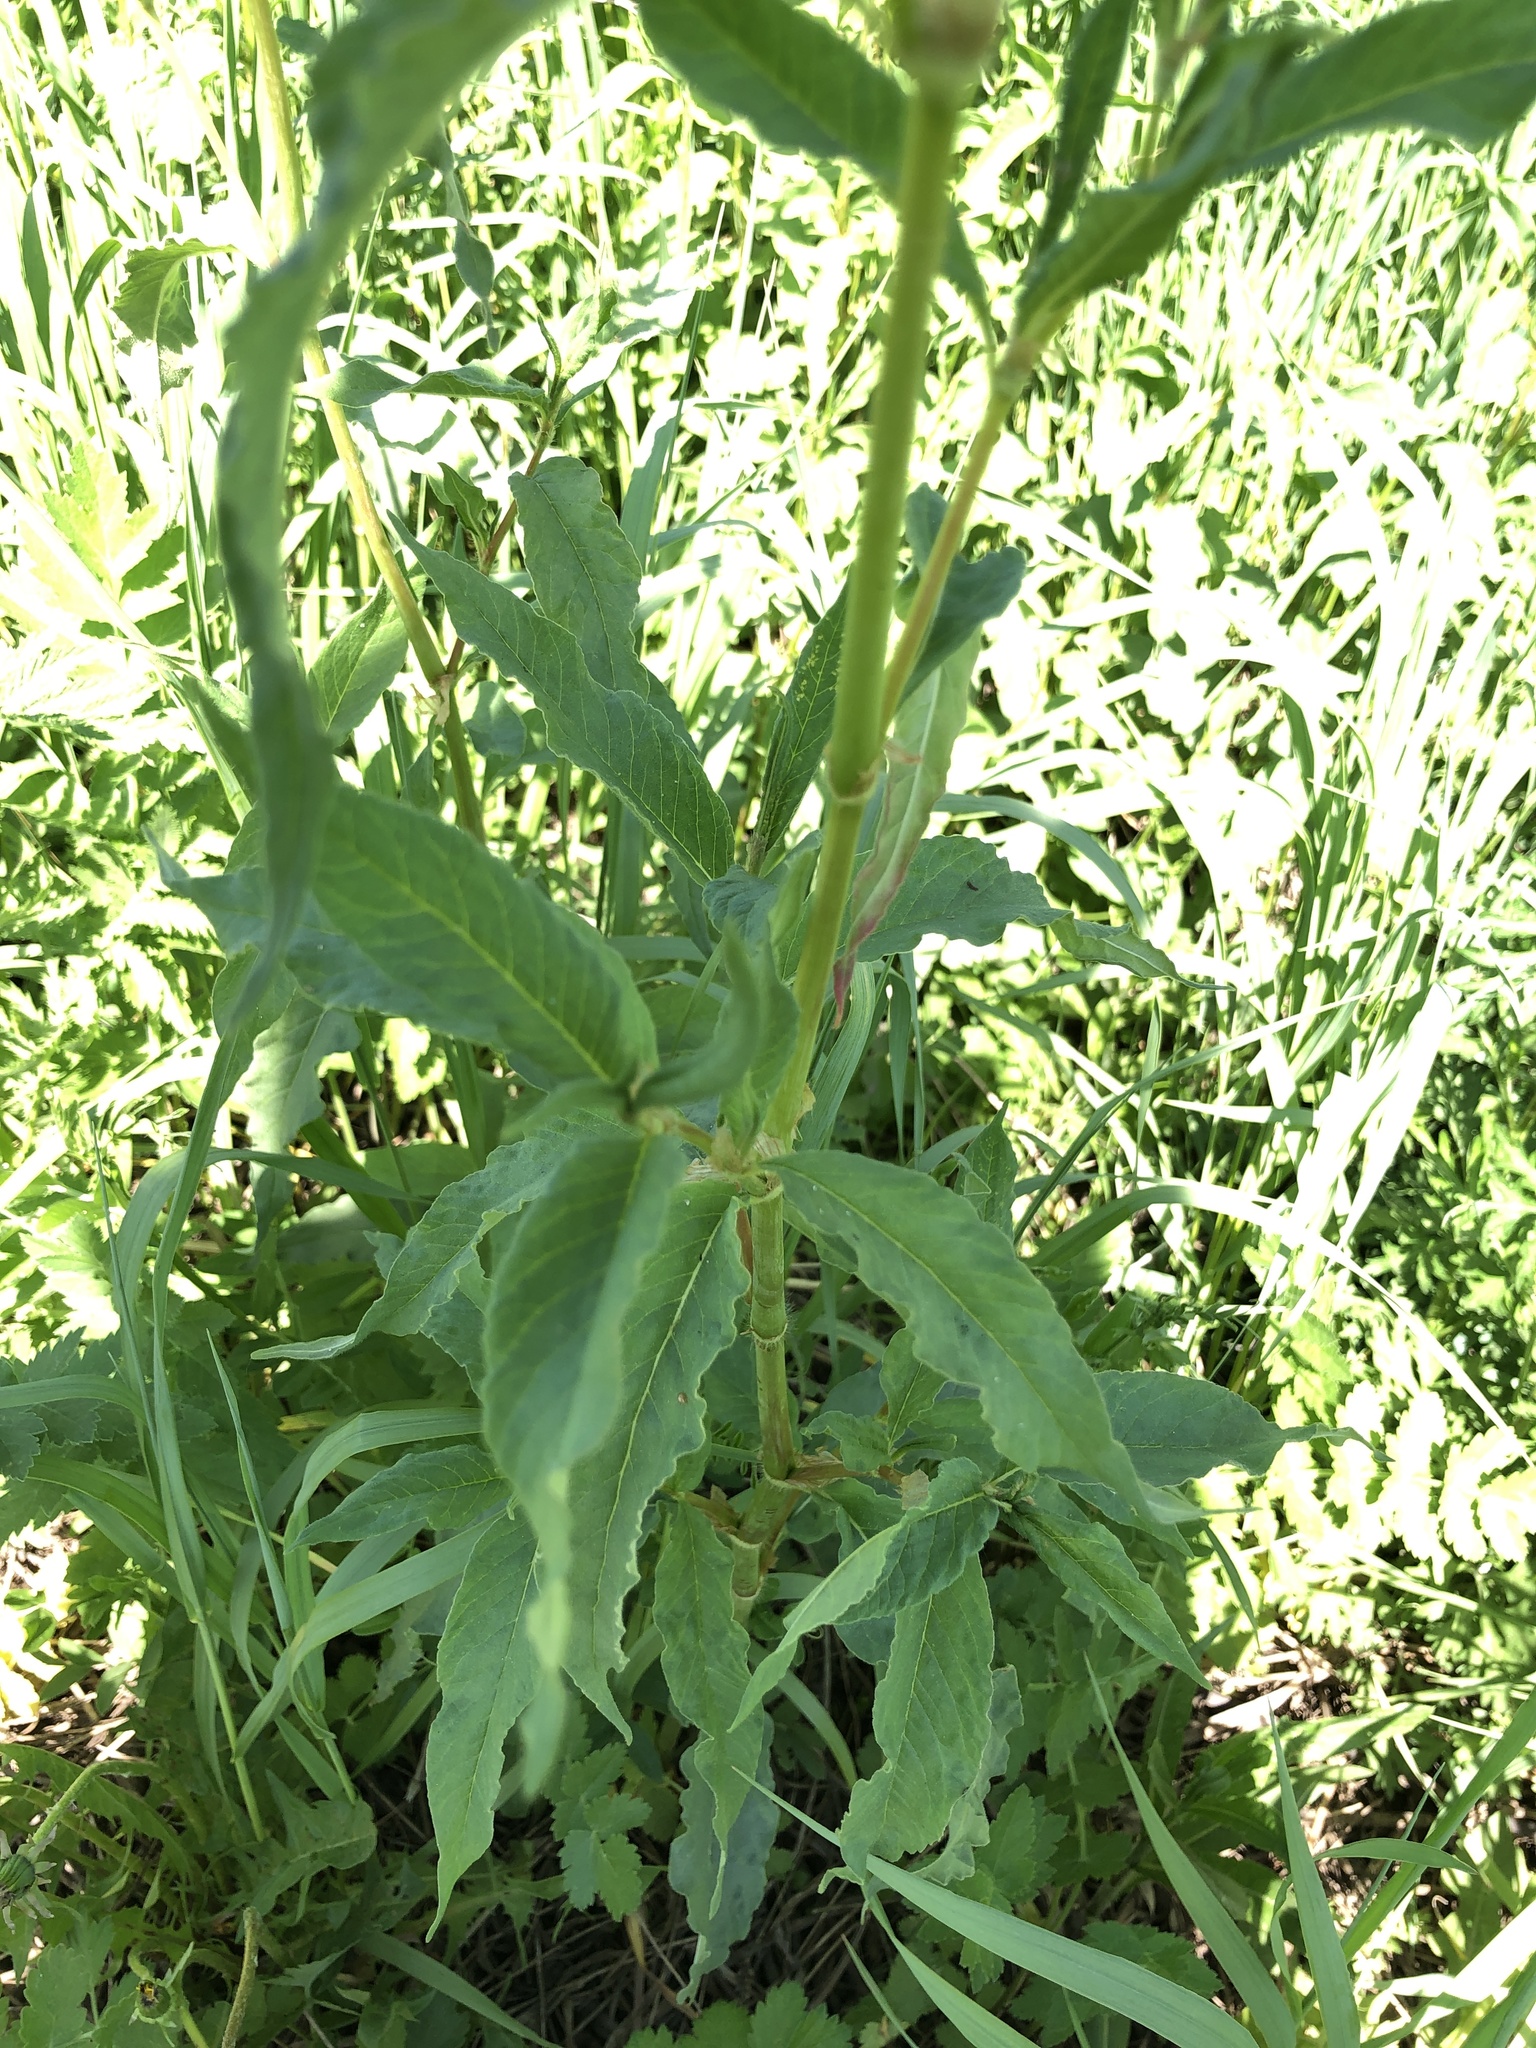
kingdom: Plantae
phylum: Tracheophyta
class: Magnoliopsida
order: Caryophyllales
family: Polygonaceae
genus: Koenigia
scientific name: Koenigia alpina
